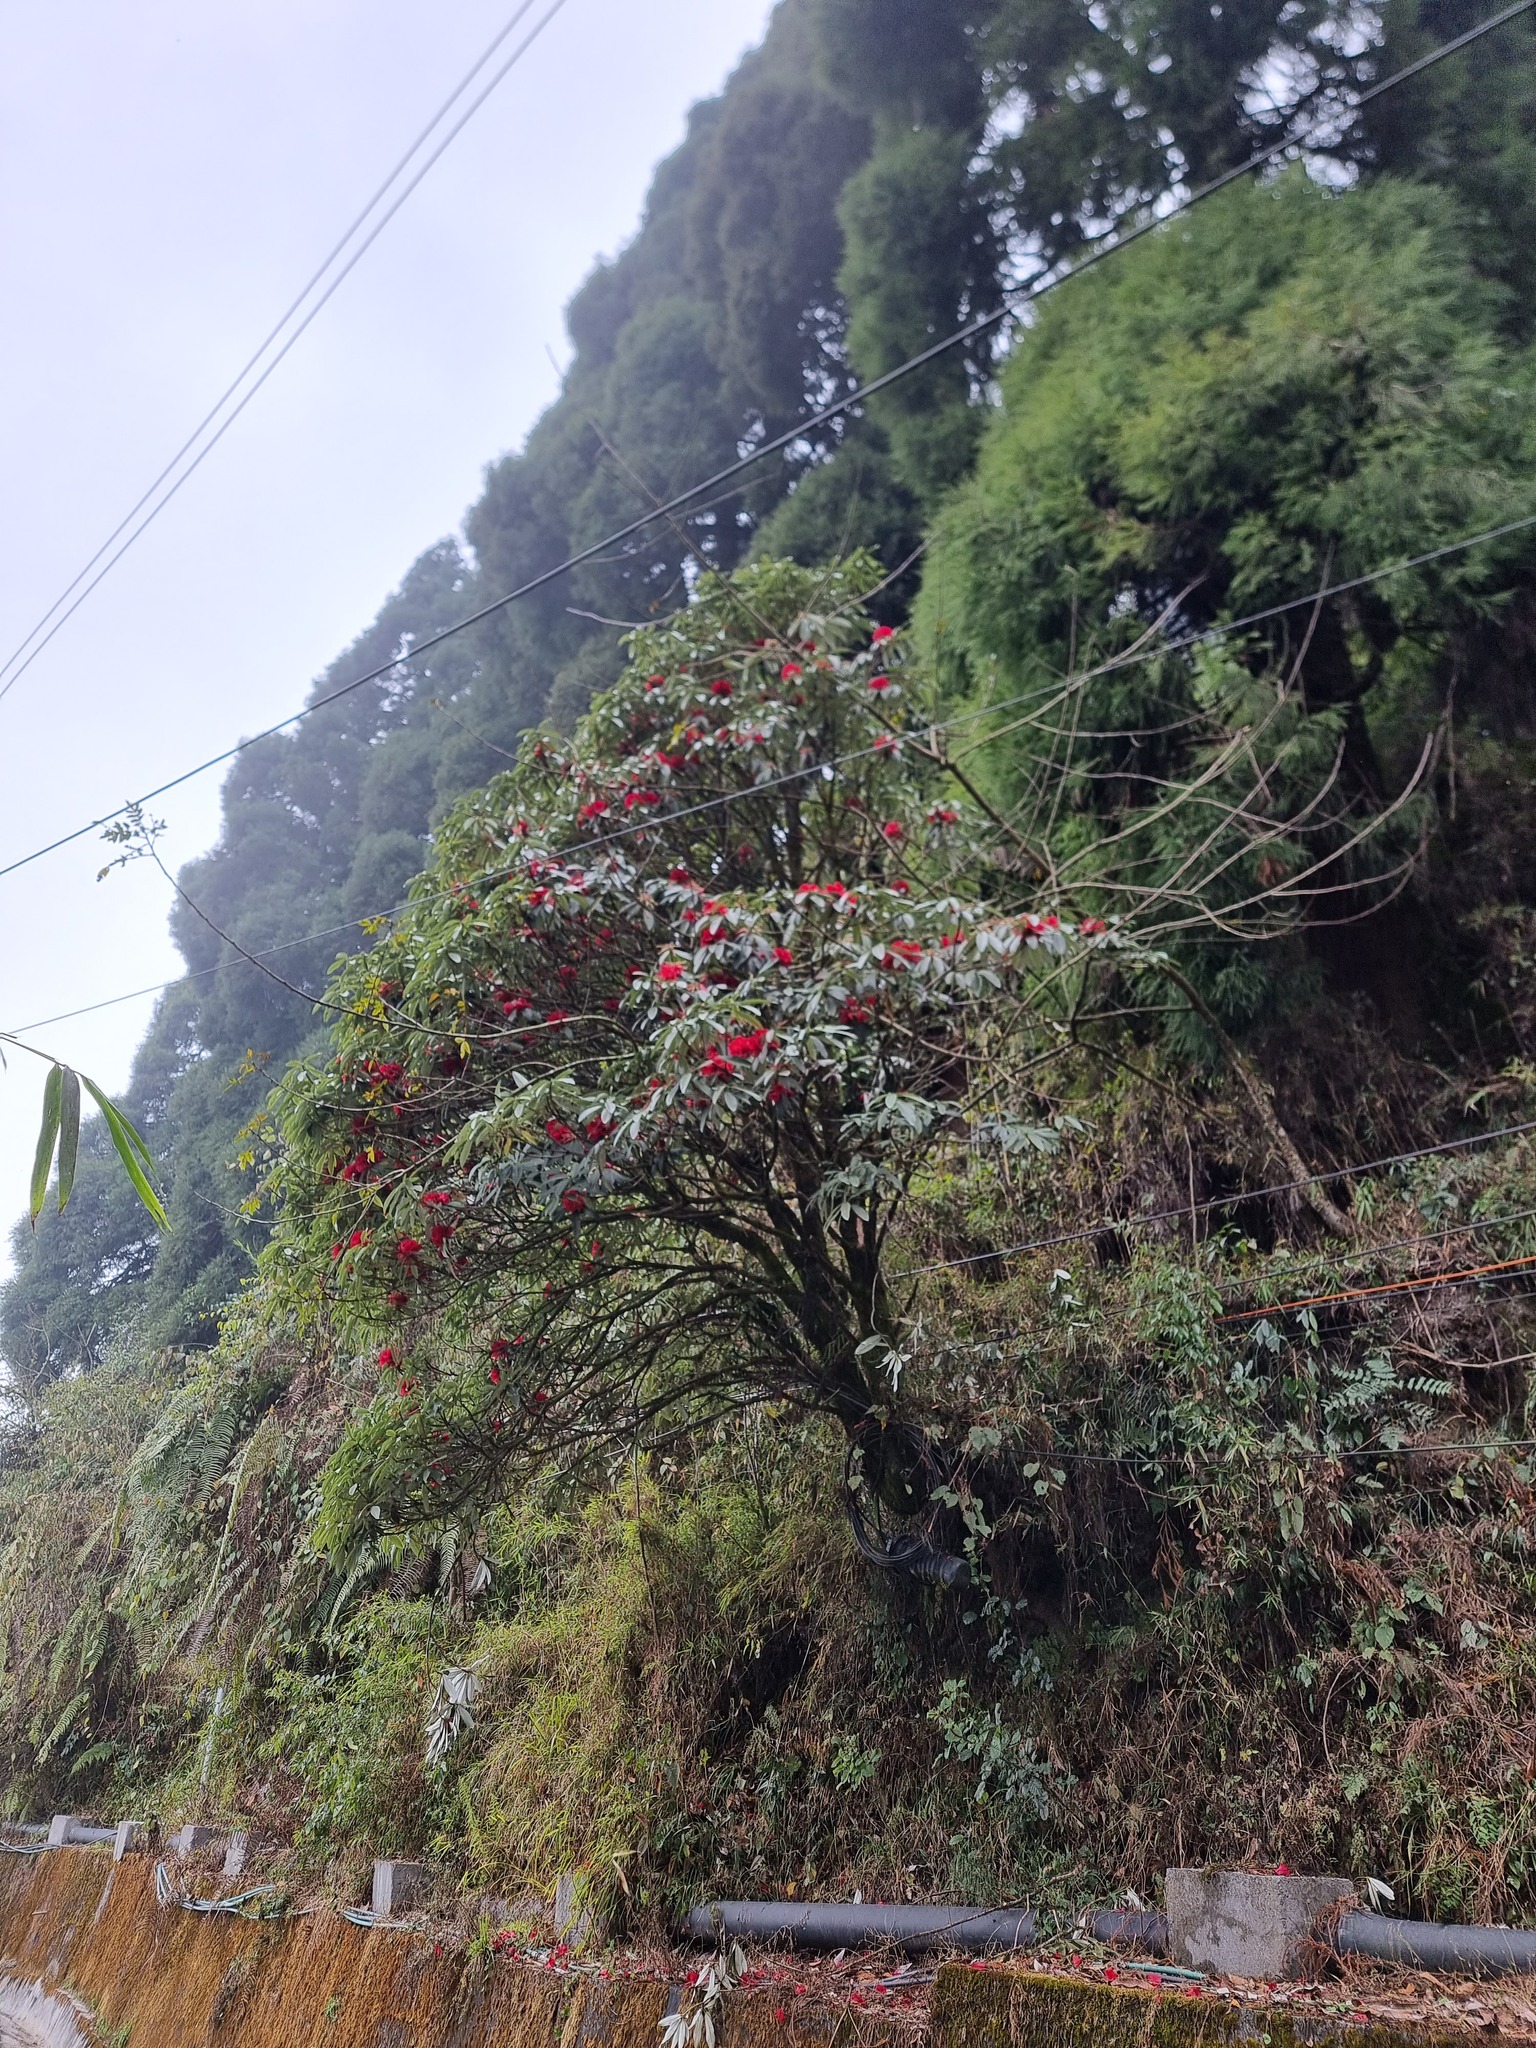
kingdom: Plantae
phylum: Tracheophyta
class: Magnoliopsida
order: Ericales
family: Ericaceae
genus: Rhododendron
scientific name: Rhododendron arboreum
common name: Tree rhododendron
